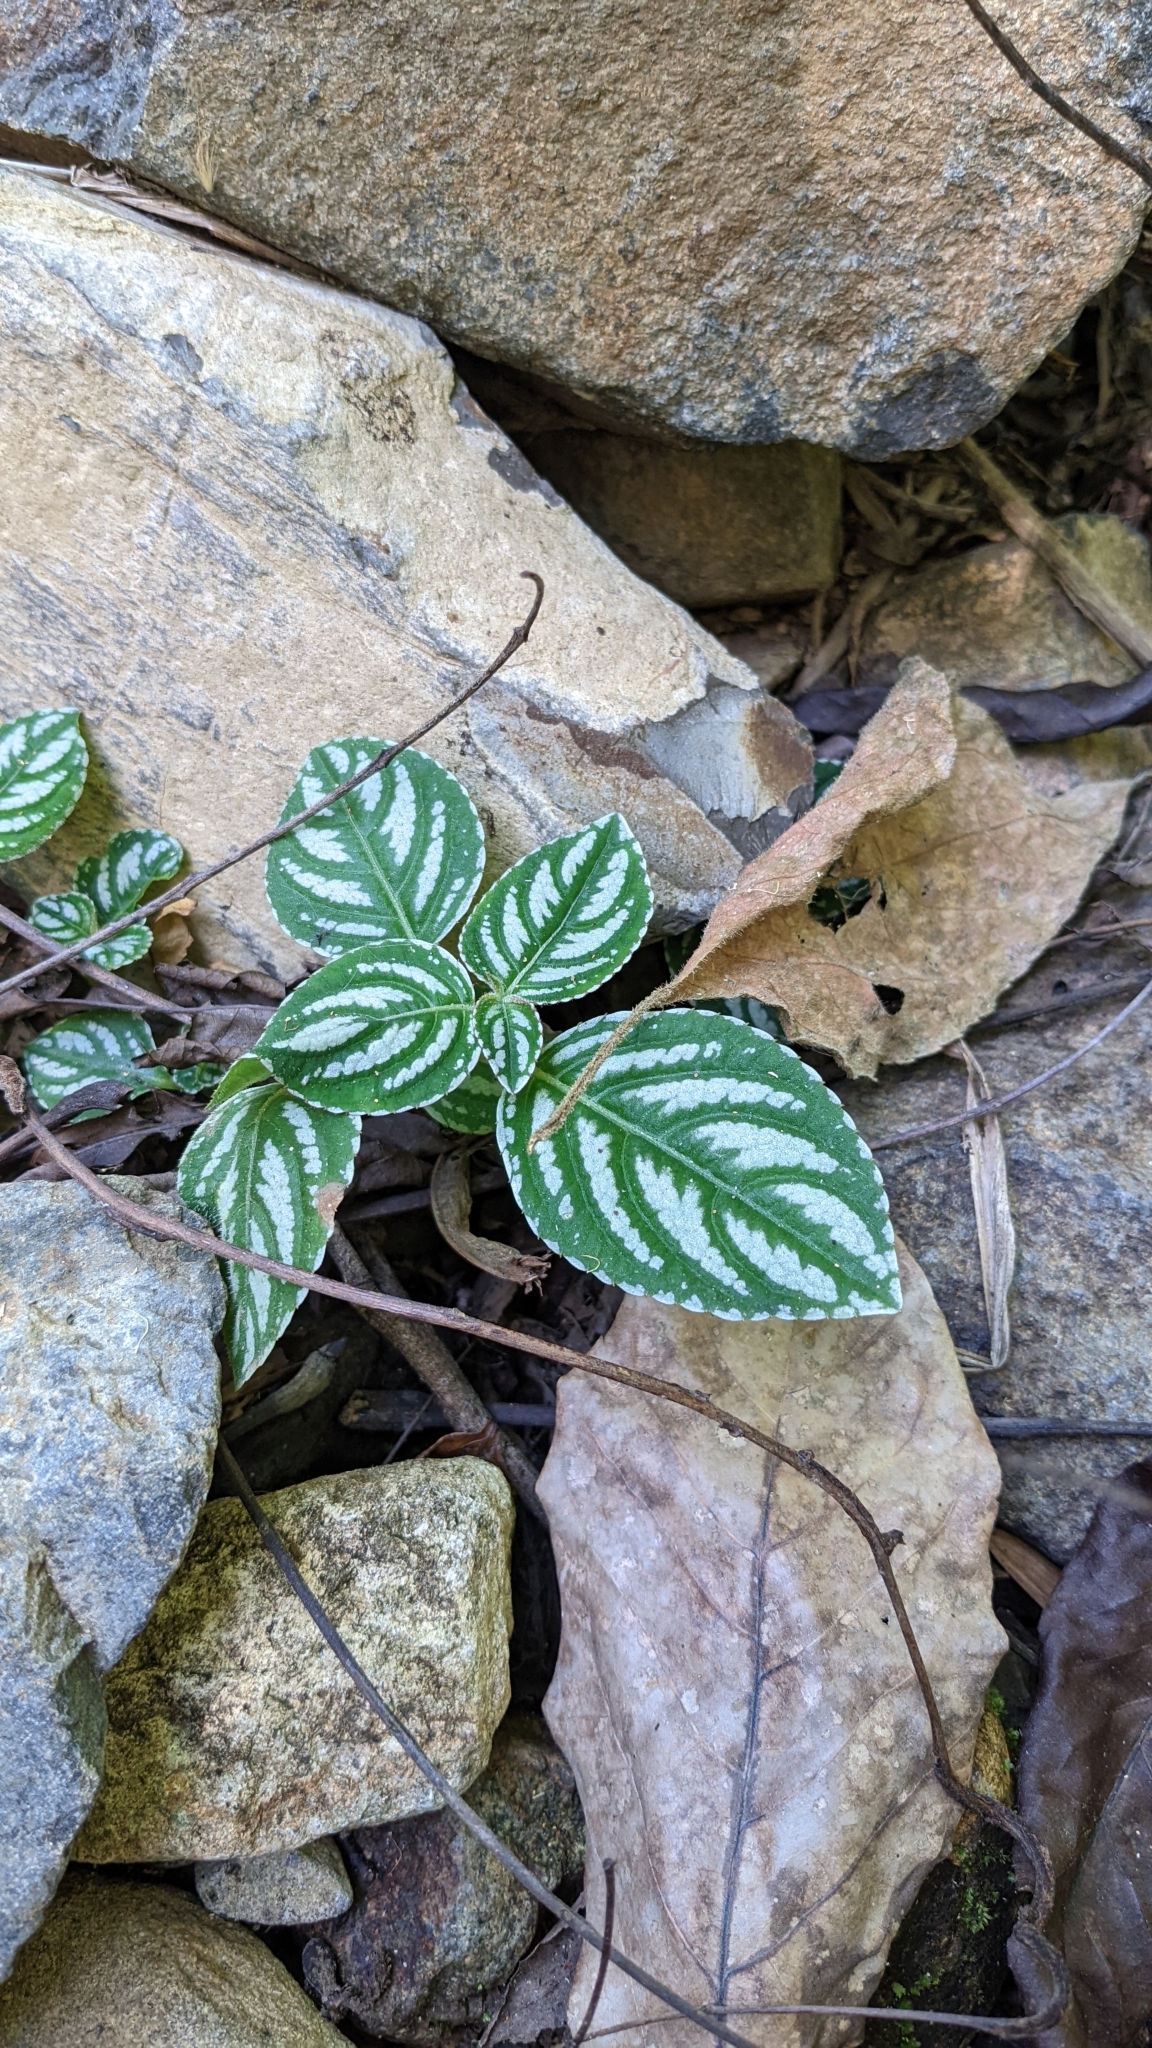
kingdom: Plantae
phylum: Tracheophyta
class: Magnoliopsida
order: Ericales
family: Balsaminaceae
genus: Impatiens
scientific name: Impatiens marianae
